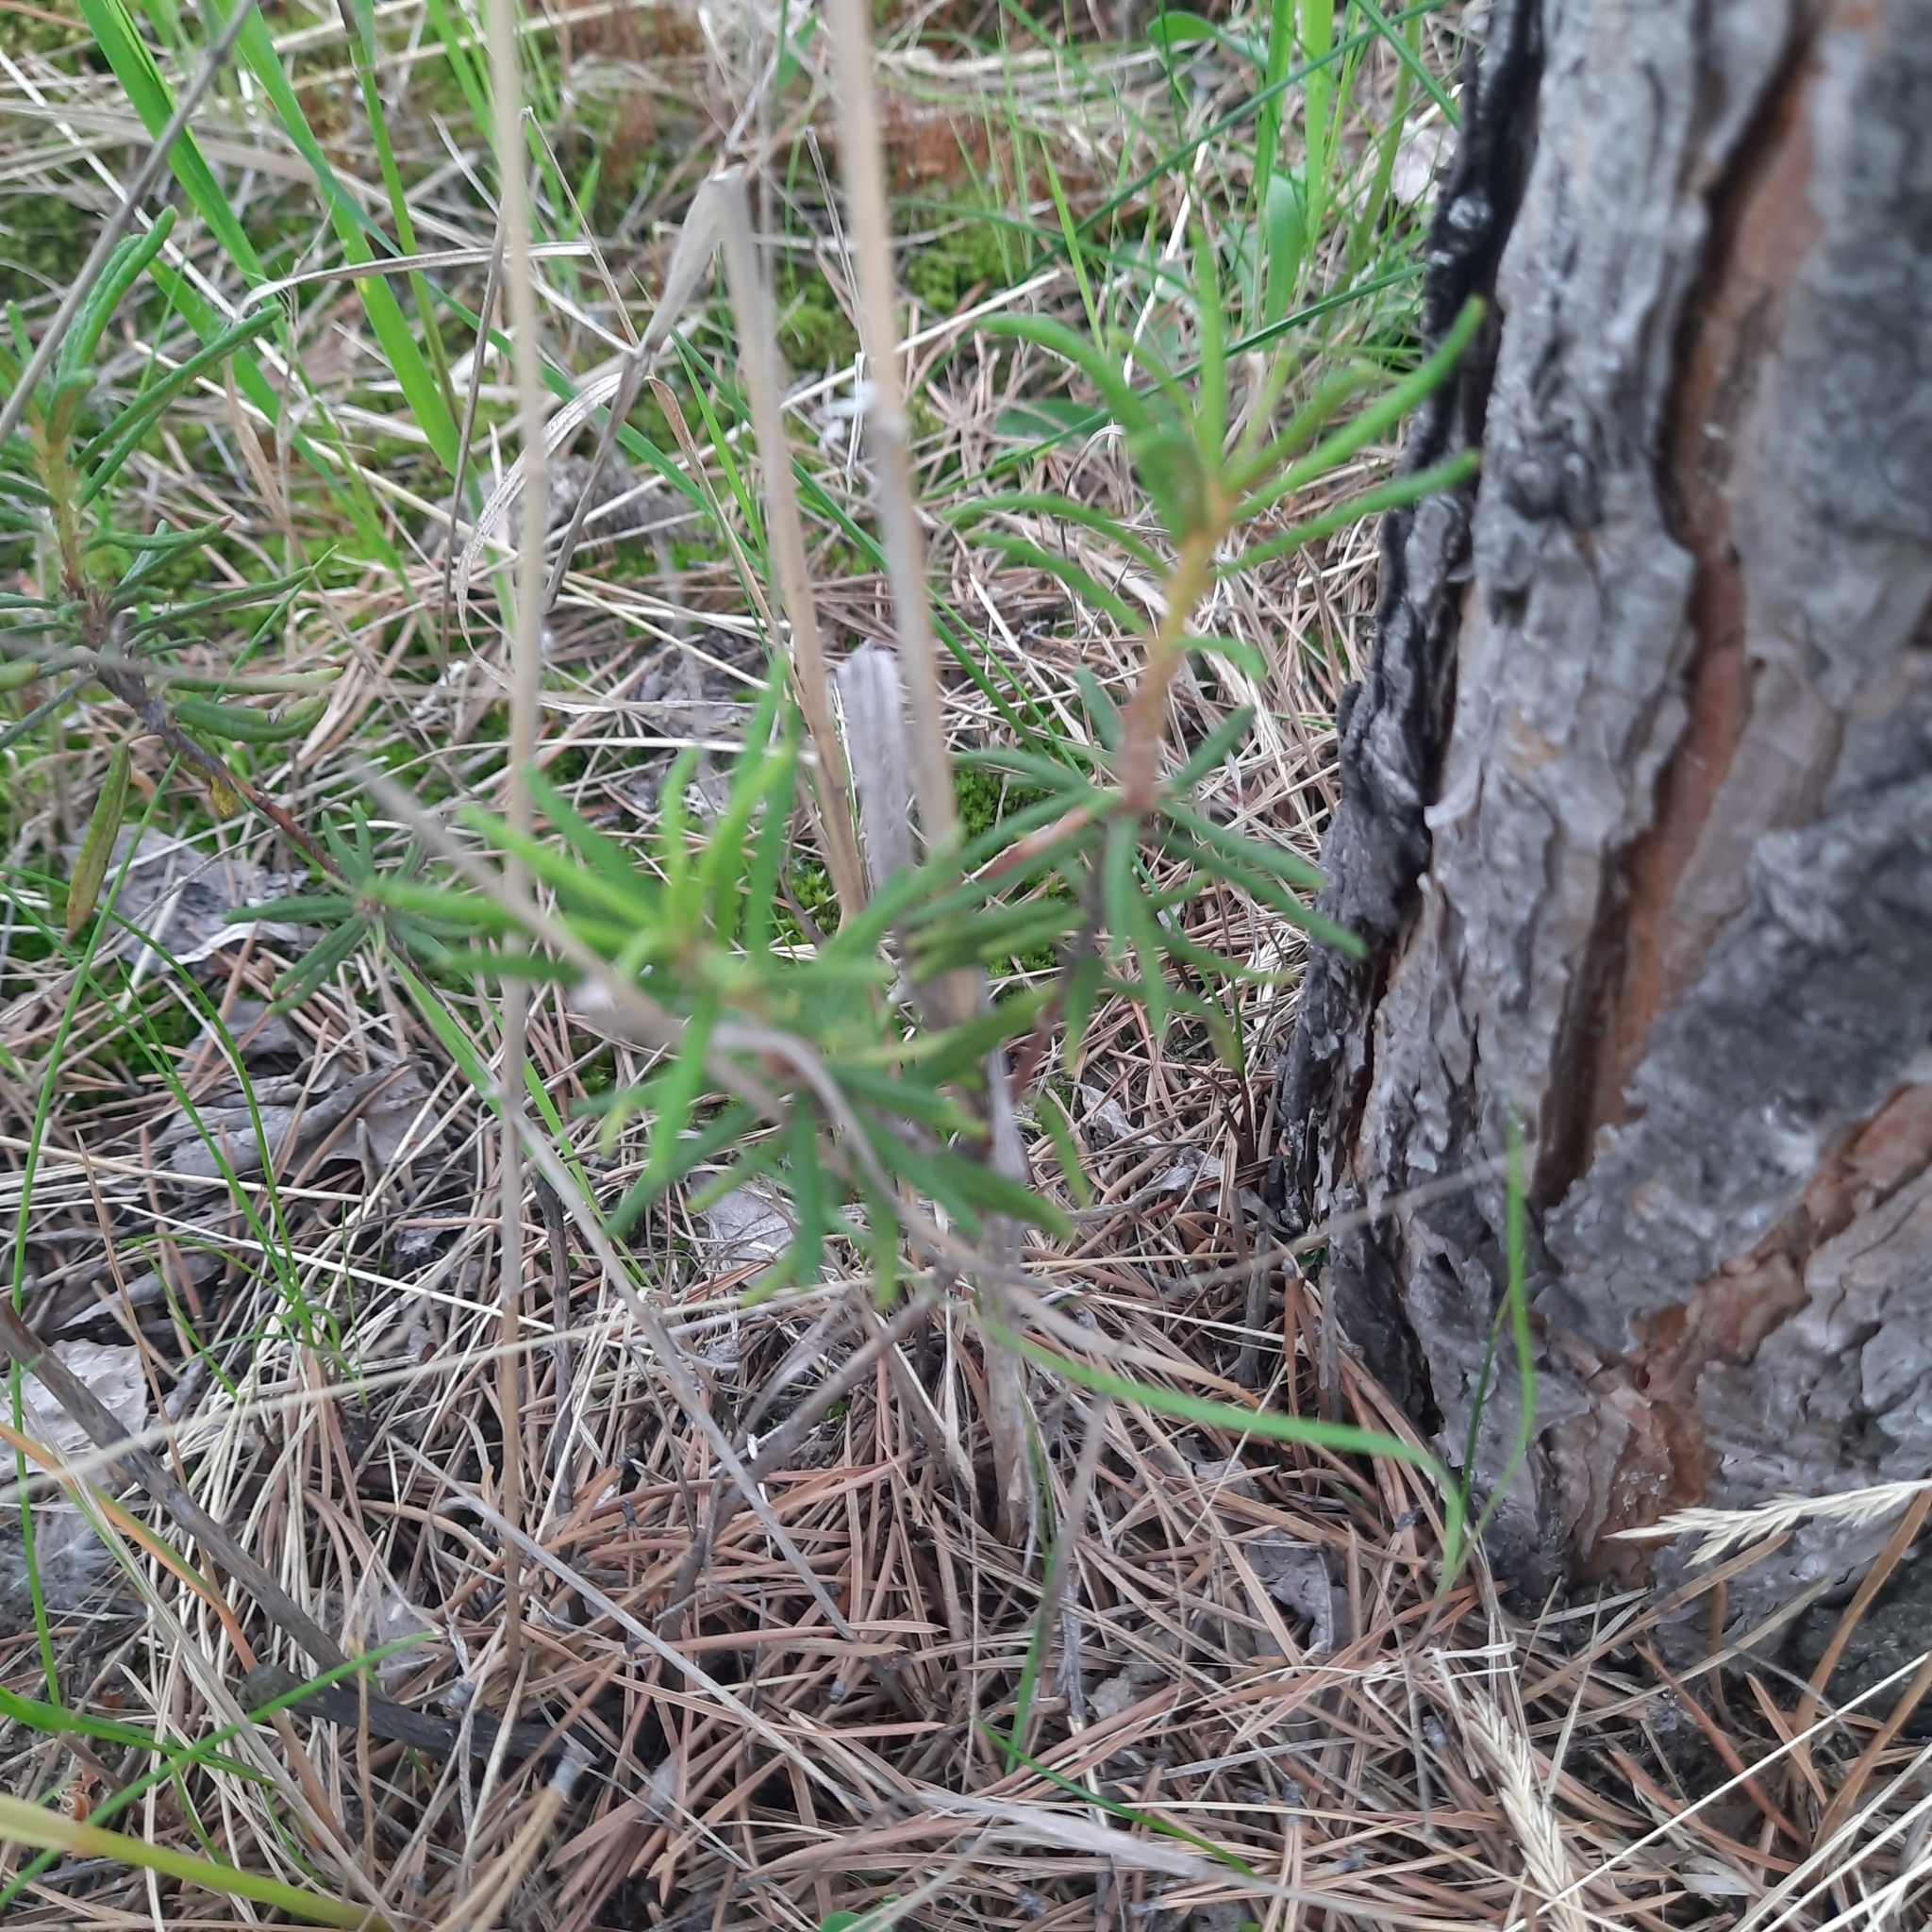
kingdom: Plantae
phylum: Tracheophyta
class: Magnoliopsida
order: Ericales
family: Ericaceae
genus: Rhododendron
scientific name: Rhododendron tomentosum
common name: Marsh labrador tea
